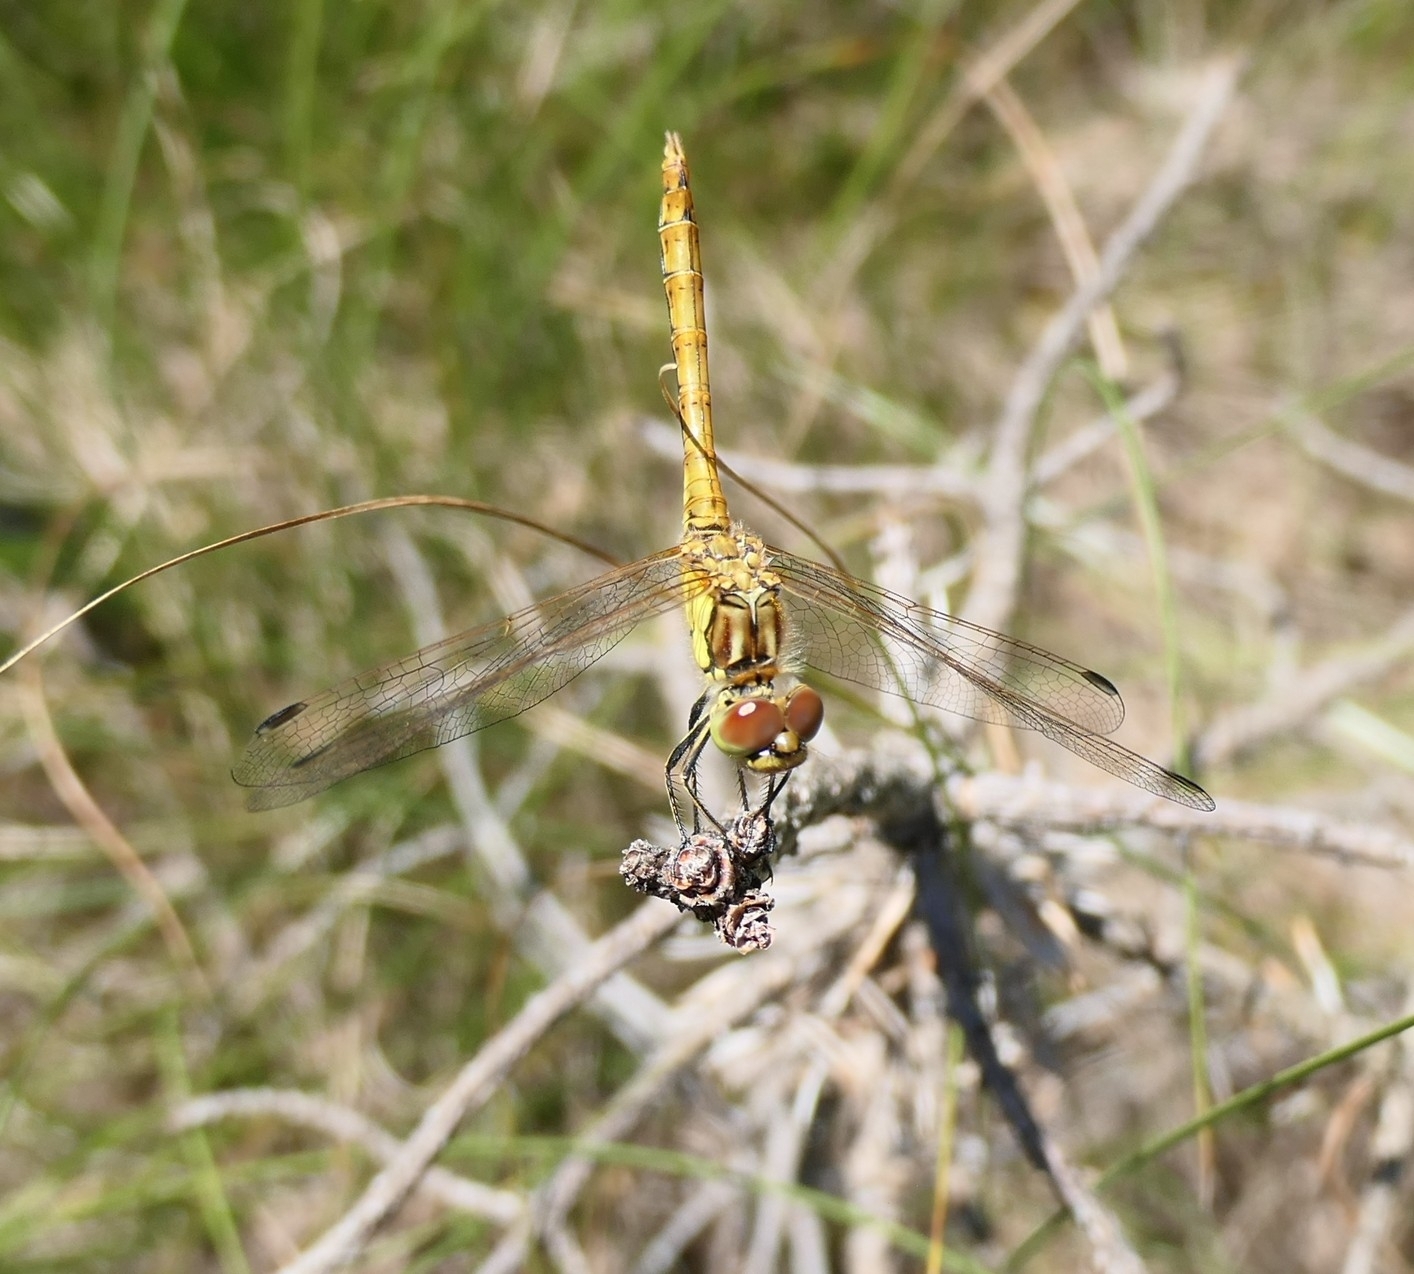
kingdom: Animalia
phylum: Arthropoda
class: Insecta
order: Odonata
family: Libellulidae
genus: Sympetrum
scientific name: Sympetrum vulgatum
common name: Vagrant darter
